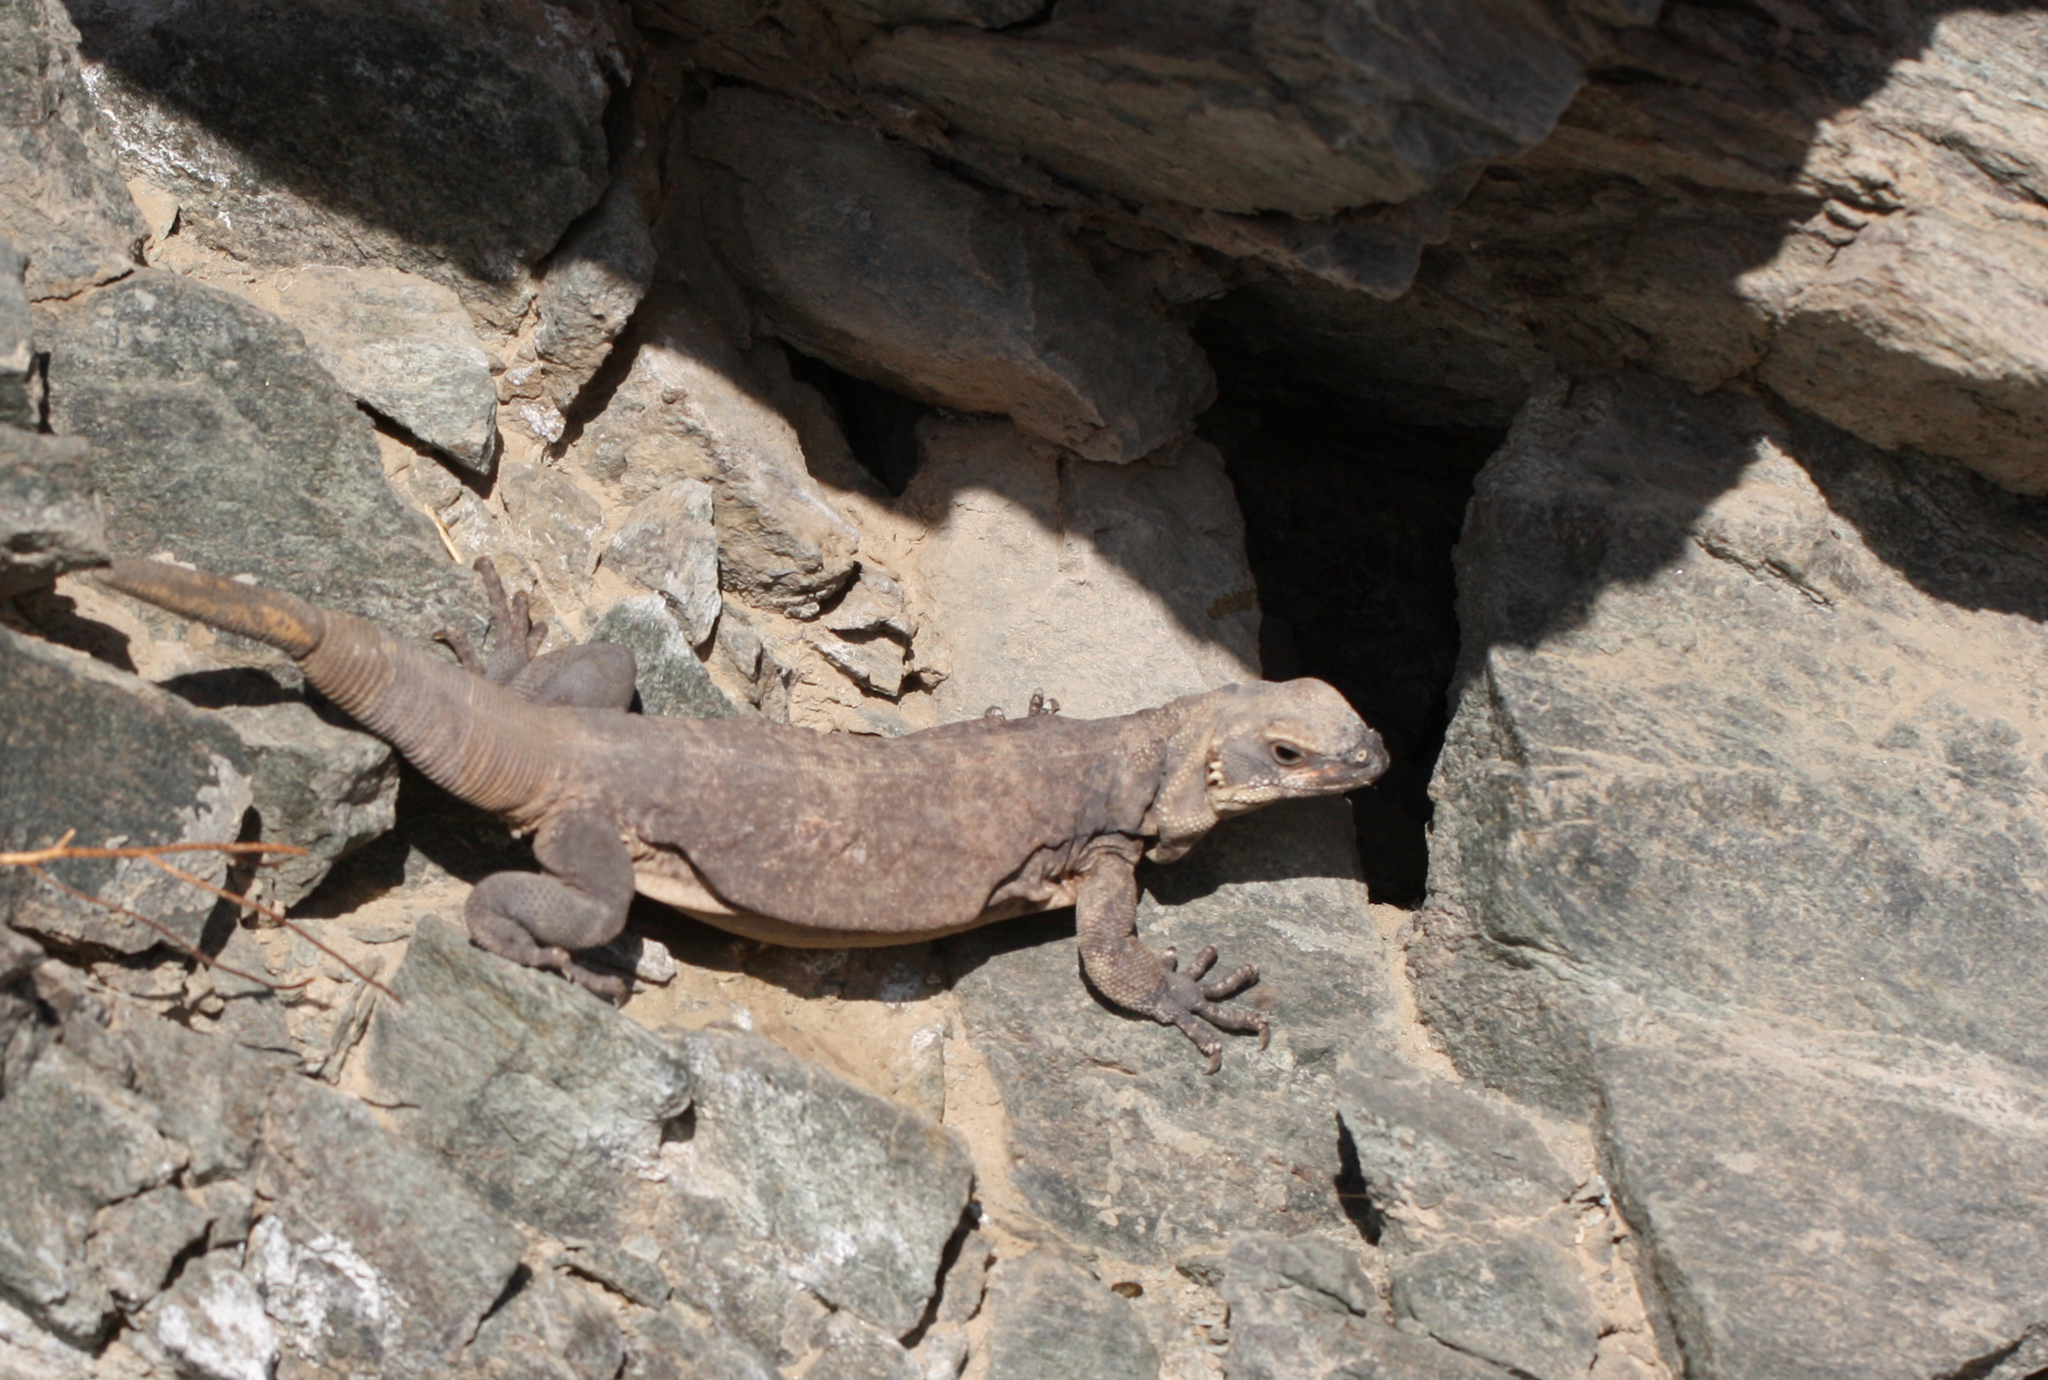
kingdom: Animalia
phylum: Chordata
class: Squamata
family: Iguanidae
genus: Sauromalus
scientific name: Sauromalus ater
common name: Northern chuckwalla
